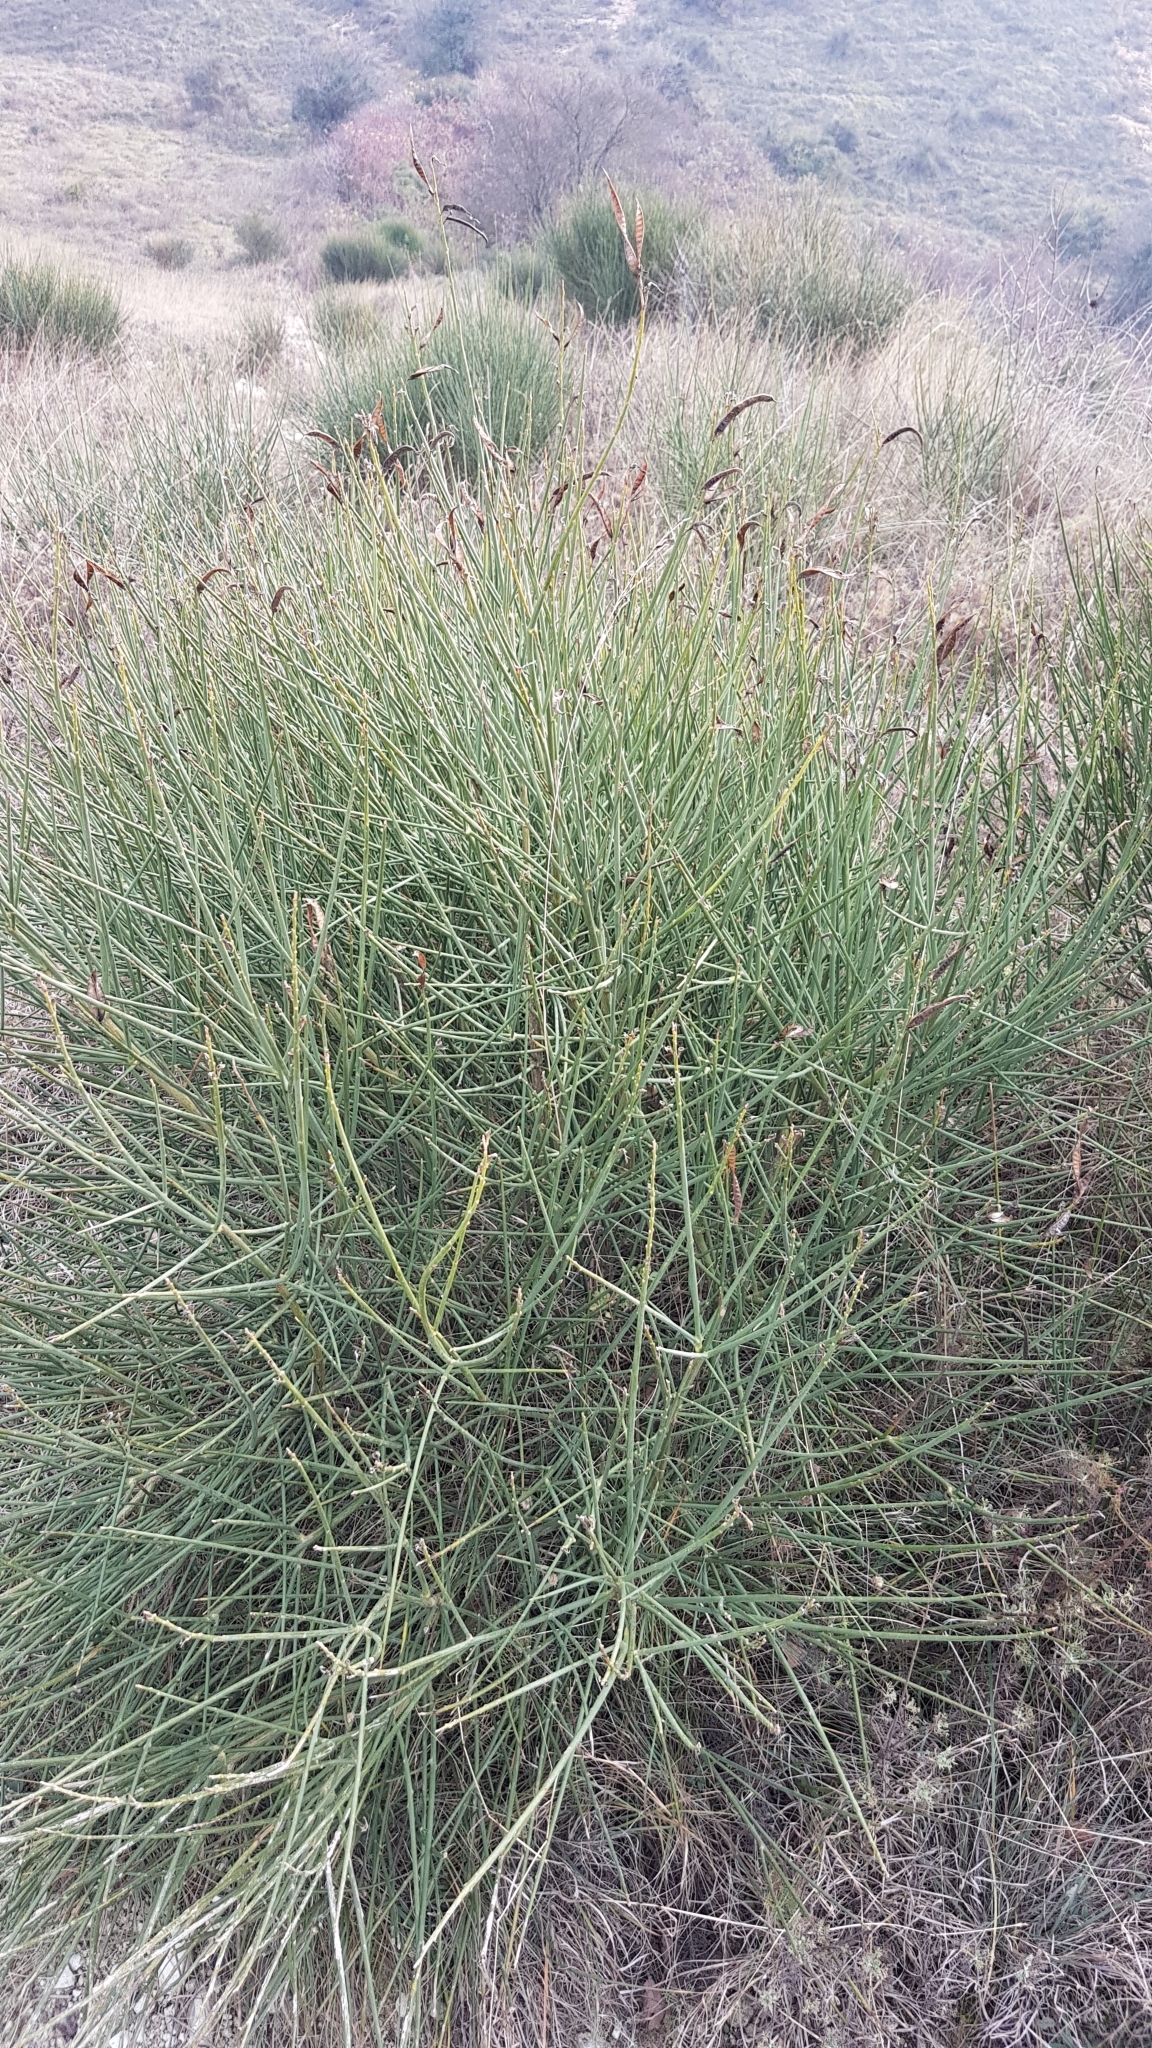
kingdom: Plantae
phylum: Tracheophyta
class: Magnoliopsida
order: Fabales
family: Fabaceae
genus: Spartium
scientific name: Spartium junceum
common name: Spanish broom
